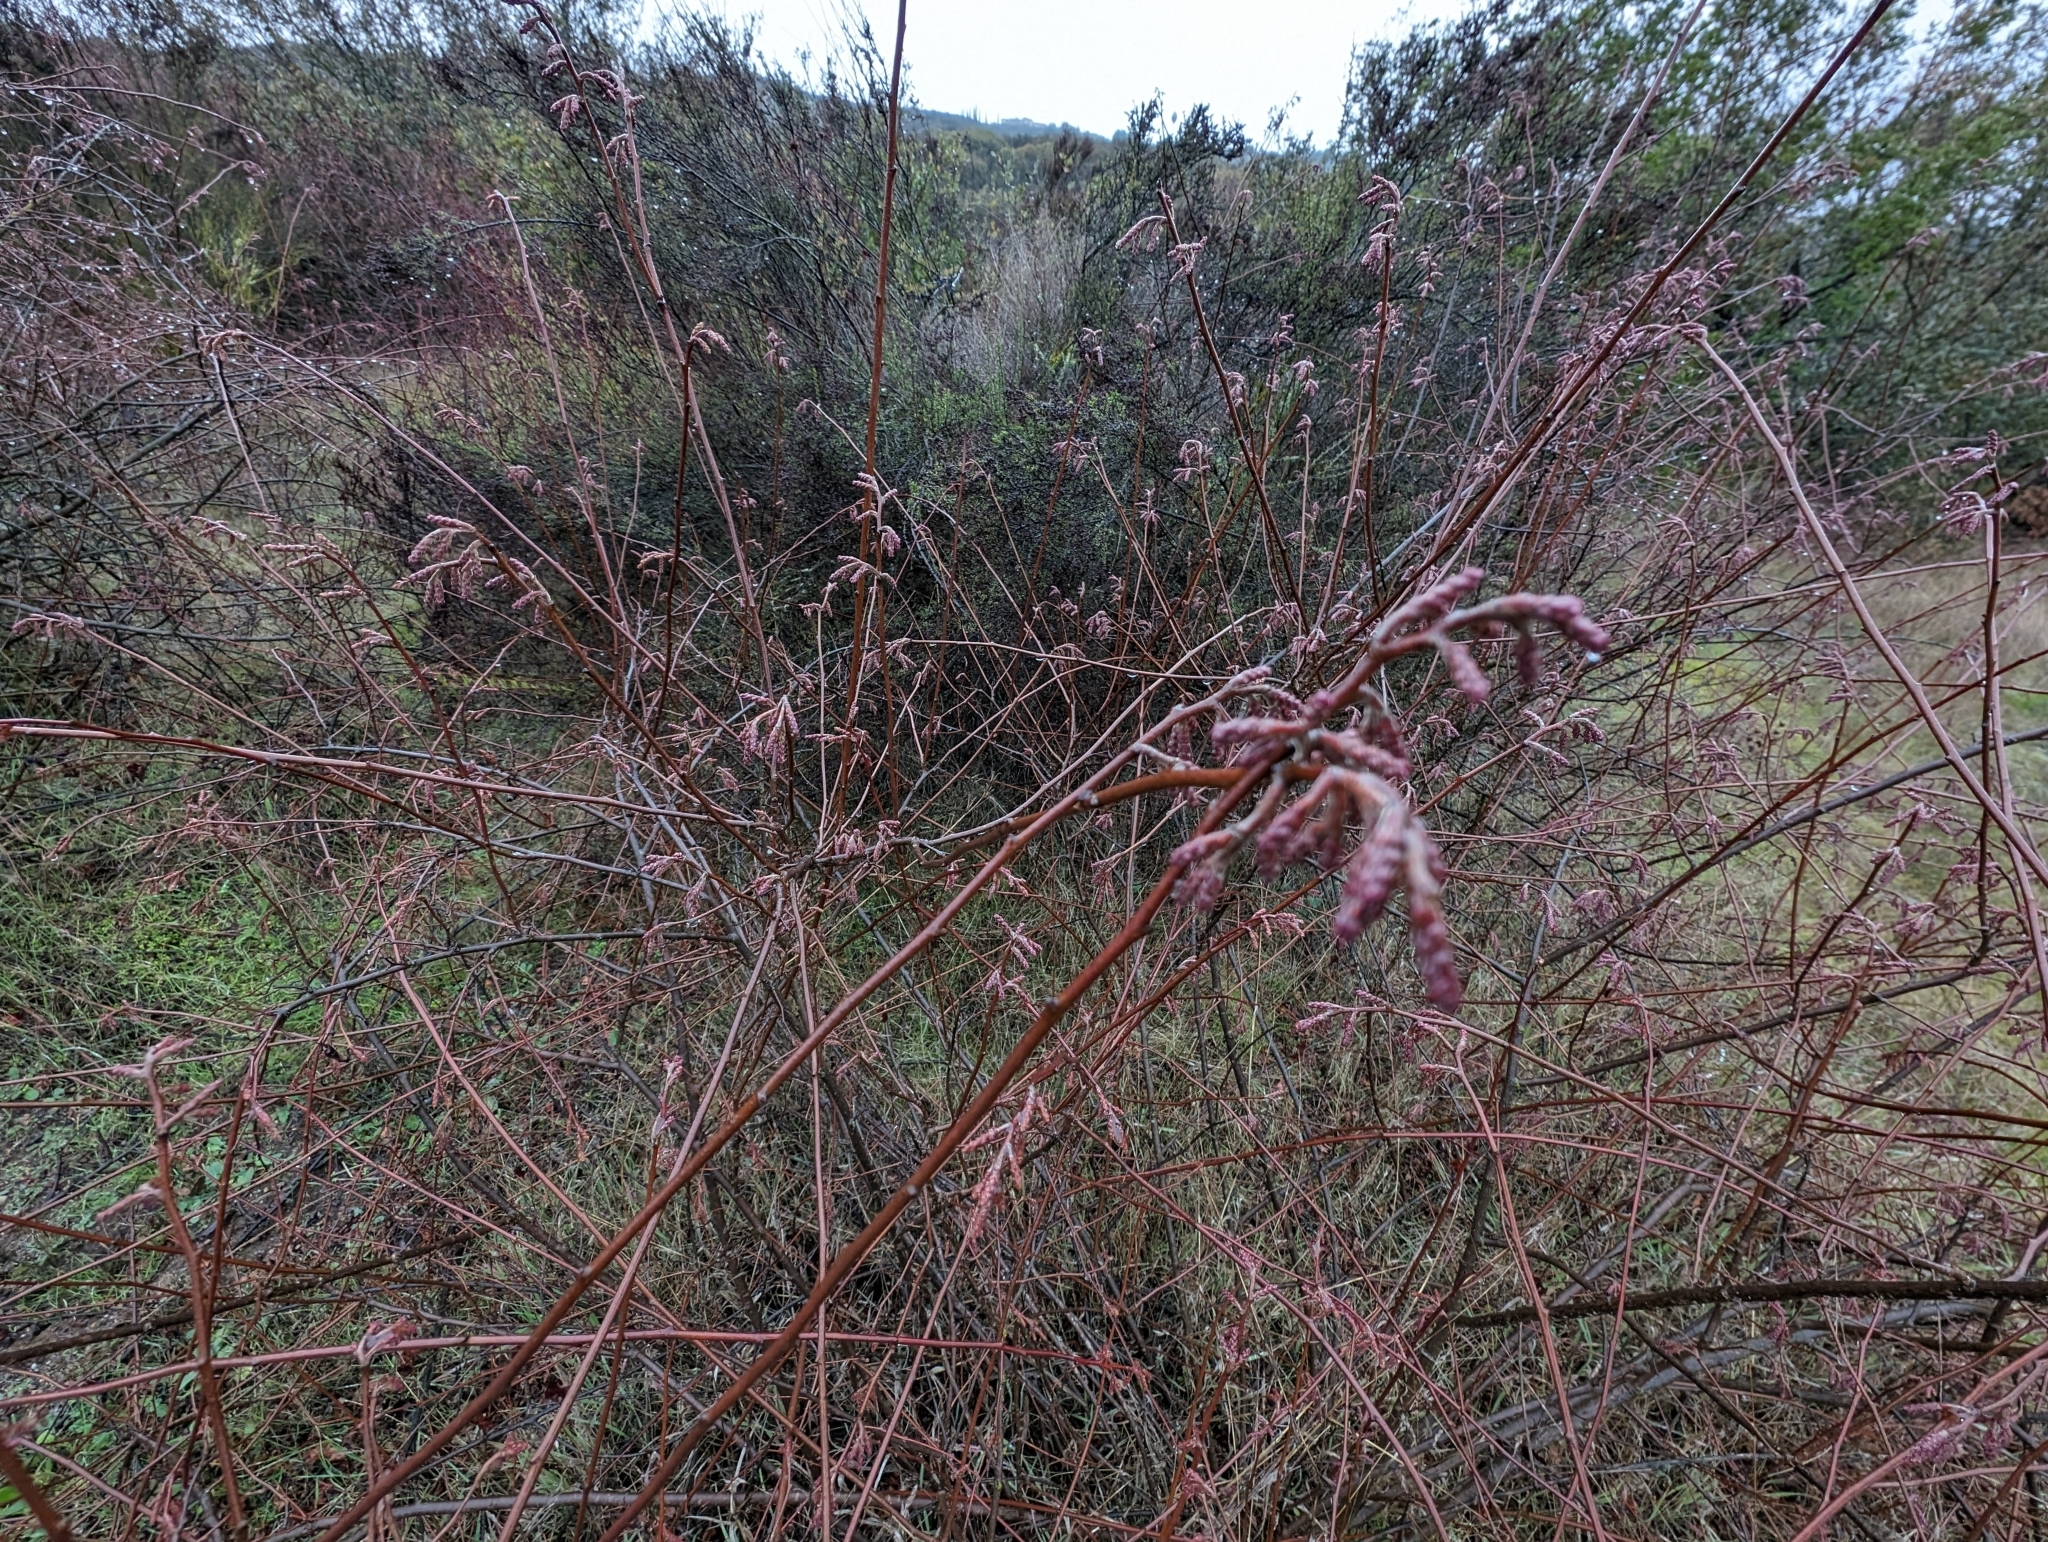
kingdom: Plantae
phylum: Tracheophyta
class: Magnoliopsida
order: Sapindales
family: Anacardiaceae
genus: Rhus
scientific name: Rhus aromatica
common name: Aromatic sumac
